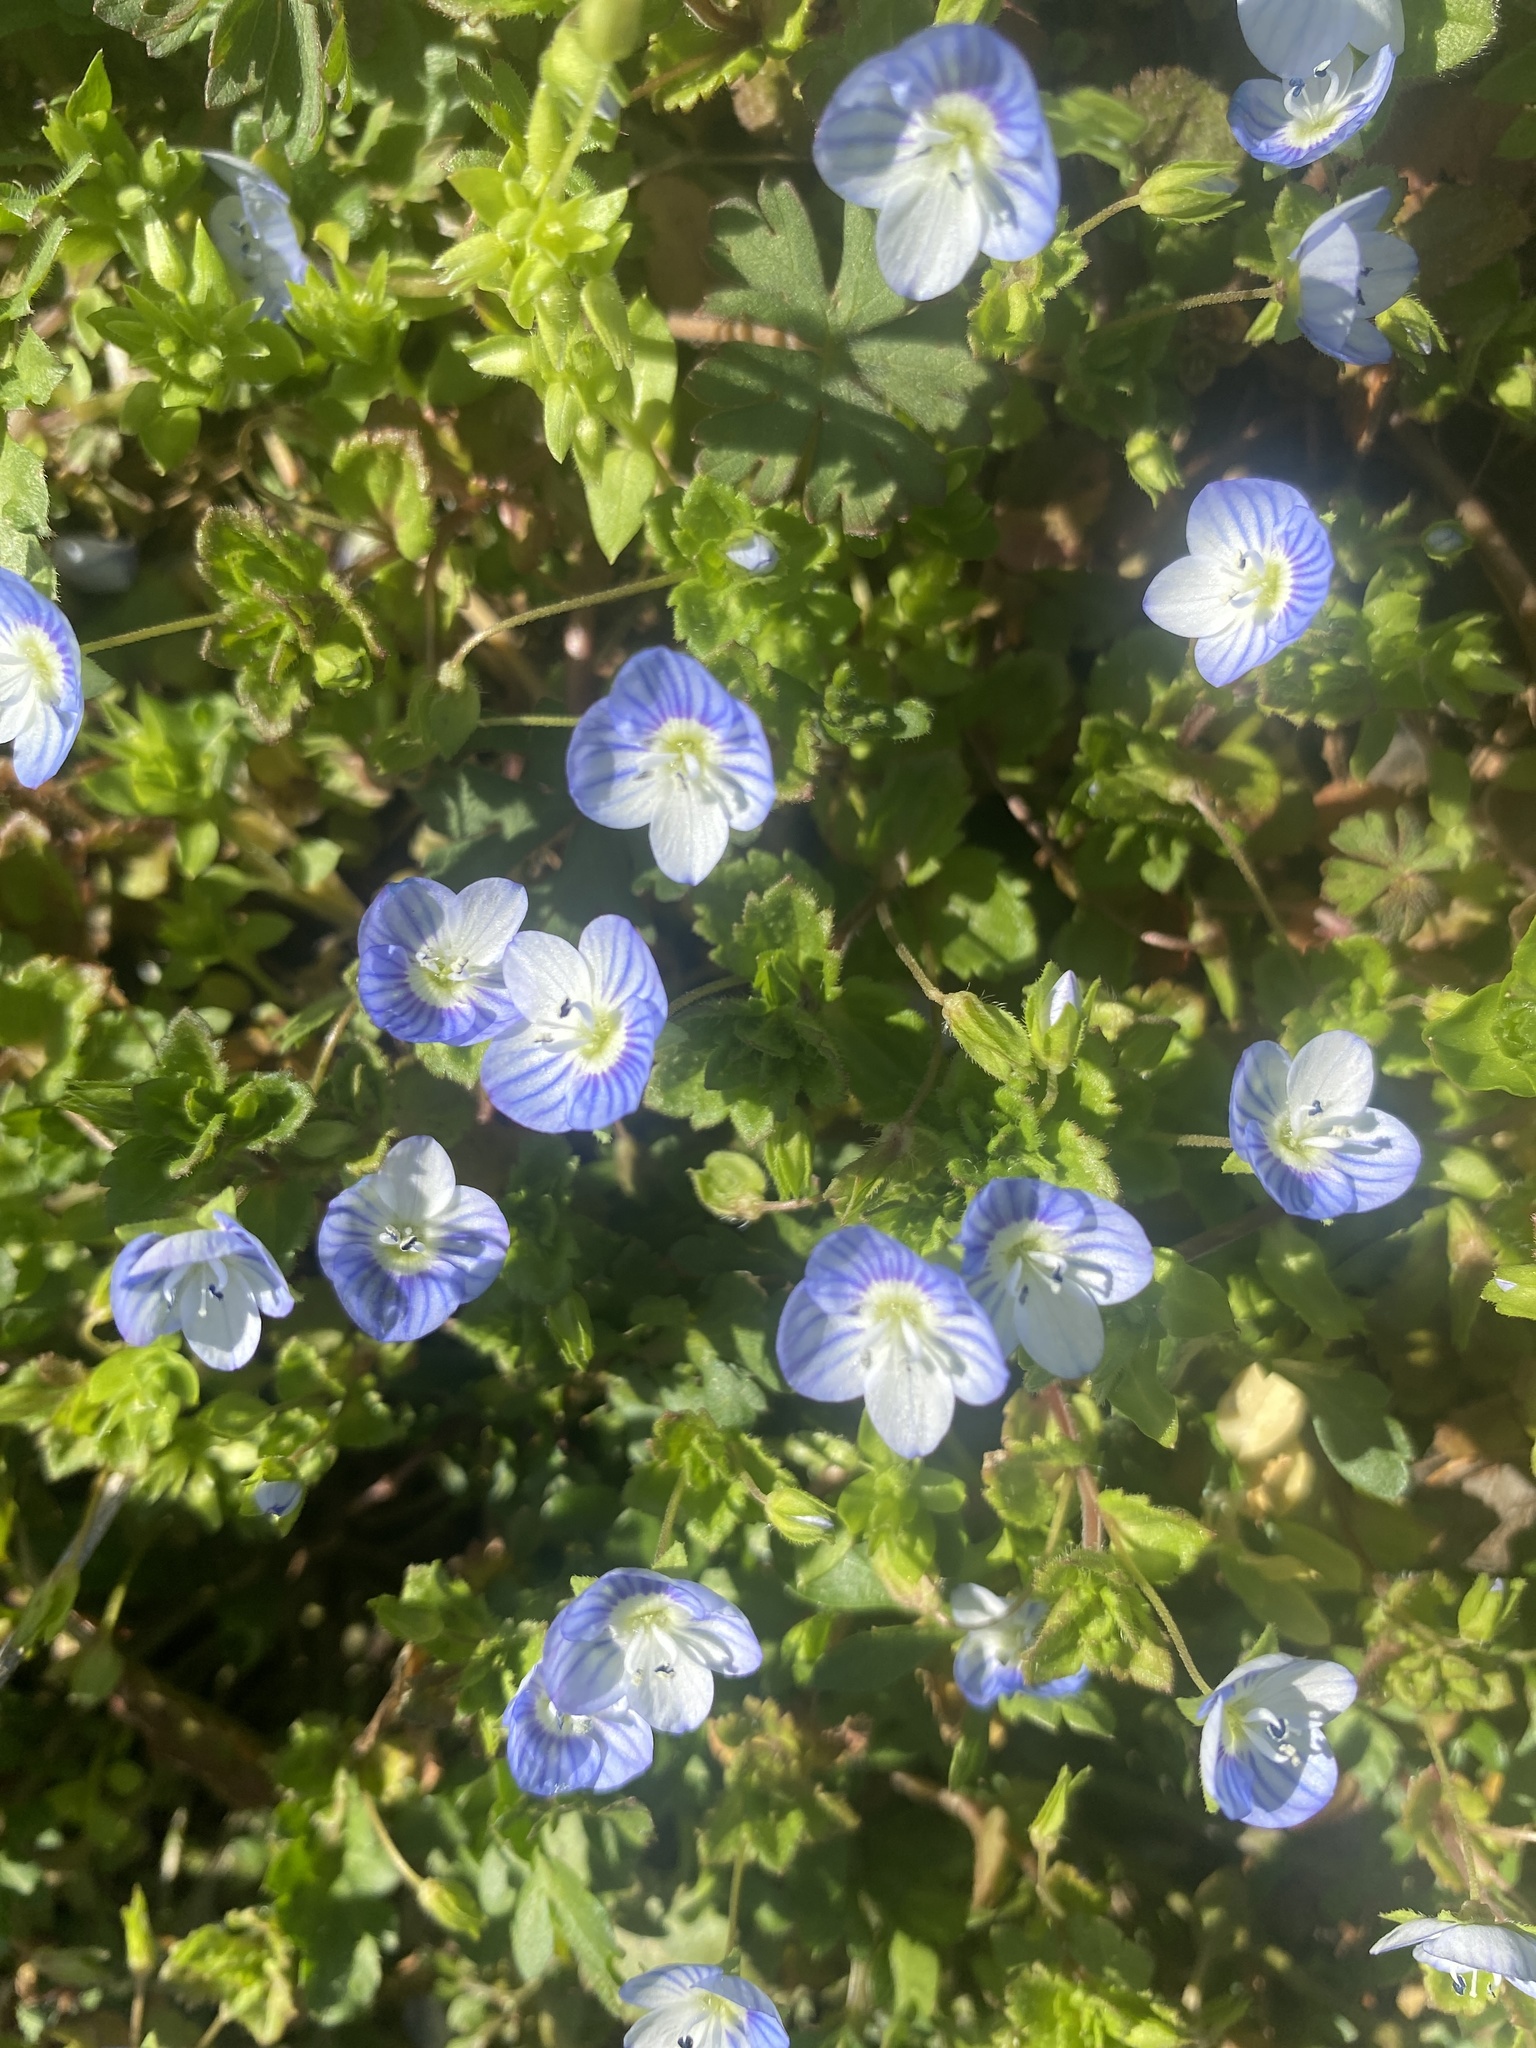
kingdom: Plantae
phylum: Tracheophyta
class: Magnoliopsida
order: Lamiales
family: Plantaginaceae
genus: Veronica
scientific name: Veronica persica
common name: Common field-speedwell
